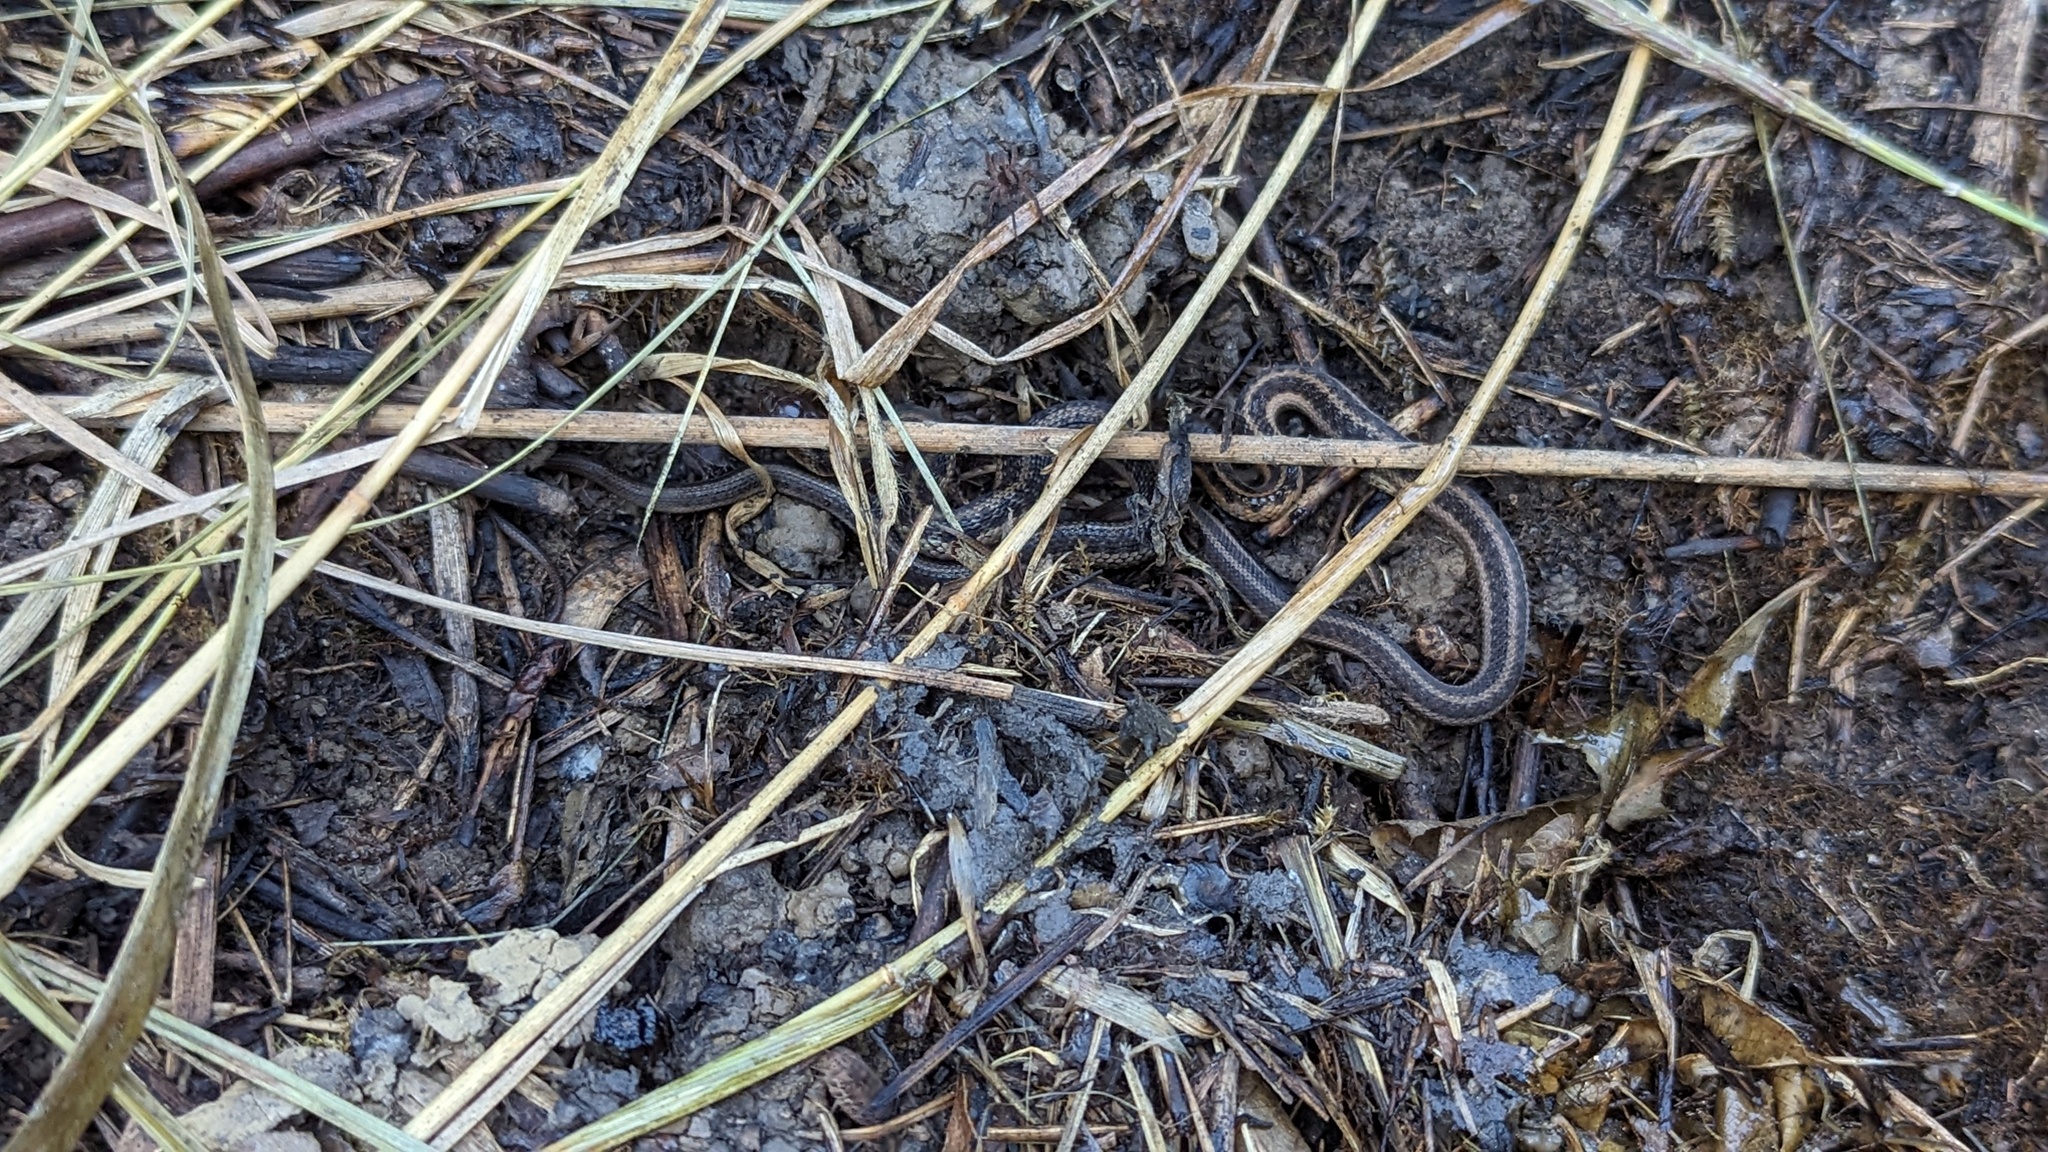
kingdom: Animalia
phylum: Chordata
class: Squamata
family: Colubridae
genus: Thamnophis
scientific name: Thamnophis sirtalis
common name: Common garter snake
